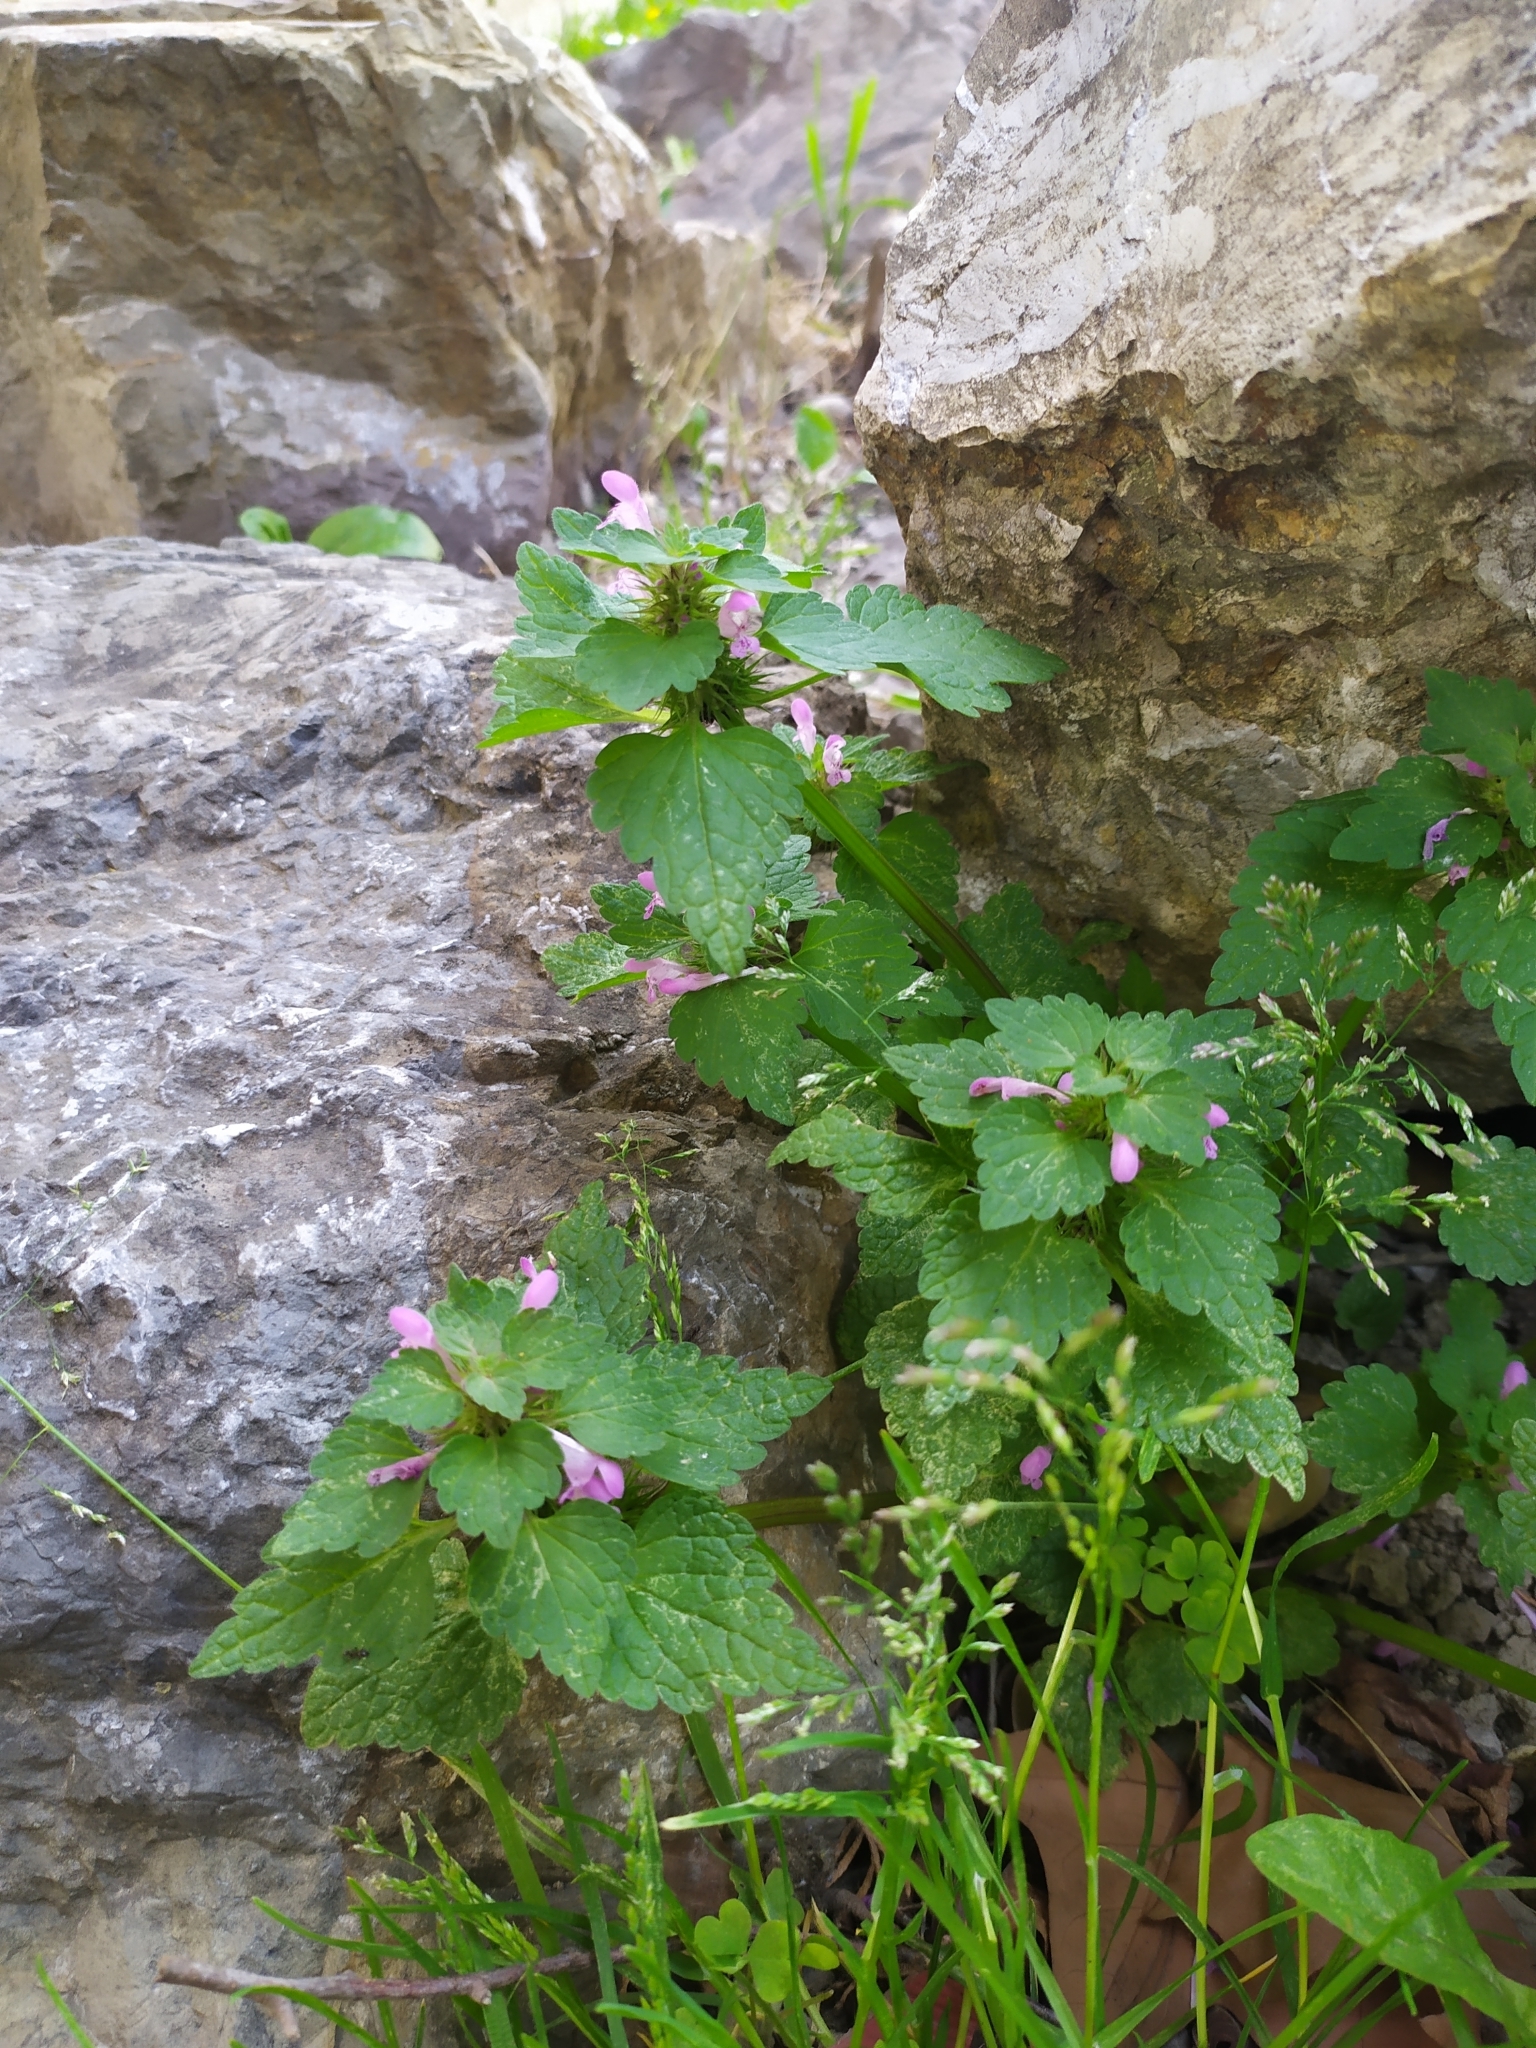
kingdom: Plantae
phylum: Tracheophyta
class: Magnoliopsida
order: Lamiales
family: Lamiaceae
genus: Lamium
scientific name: Lamium purpureum
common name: Red dead-nettle
